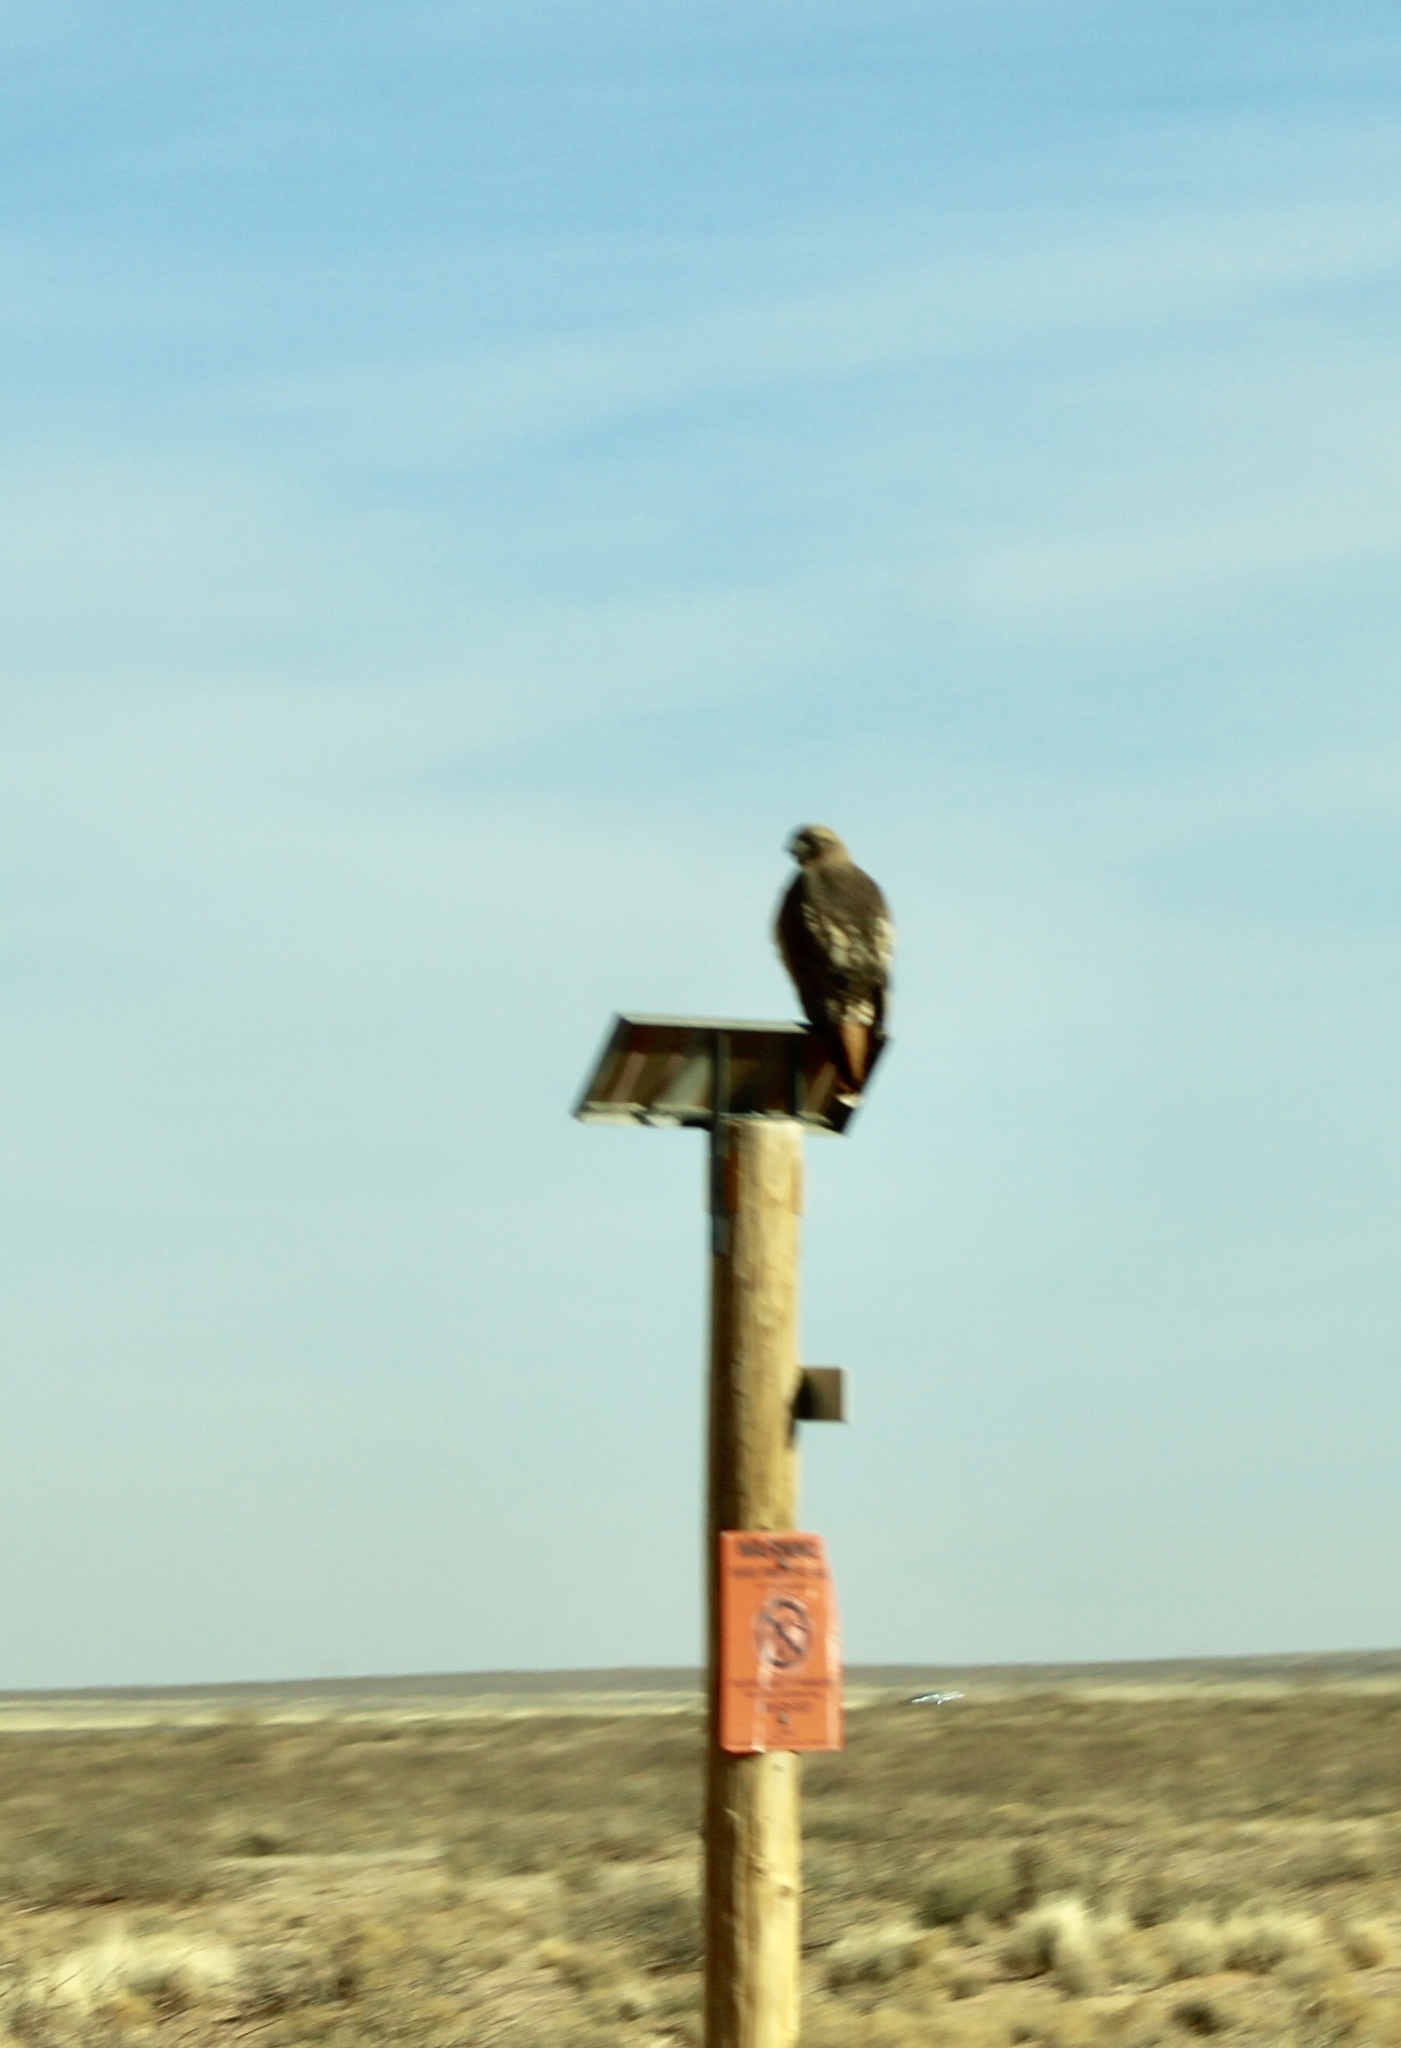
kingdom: Animalia
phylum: Chordata
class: Aves
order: Accipitriformes
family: Accipitridae
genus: Buteo
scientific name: Buteo jamaicensis
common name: Red-tailed hawk
